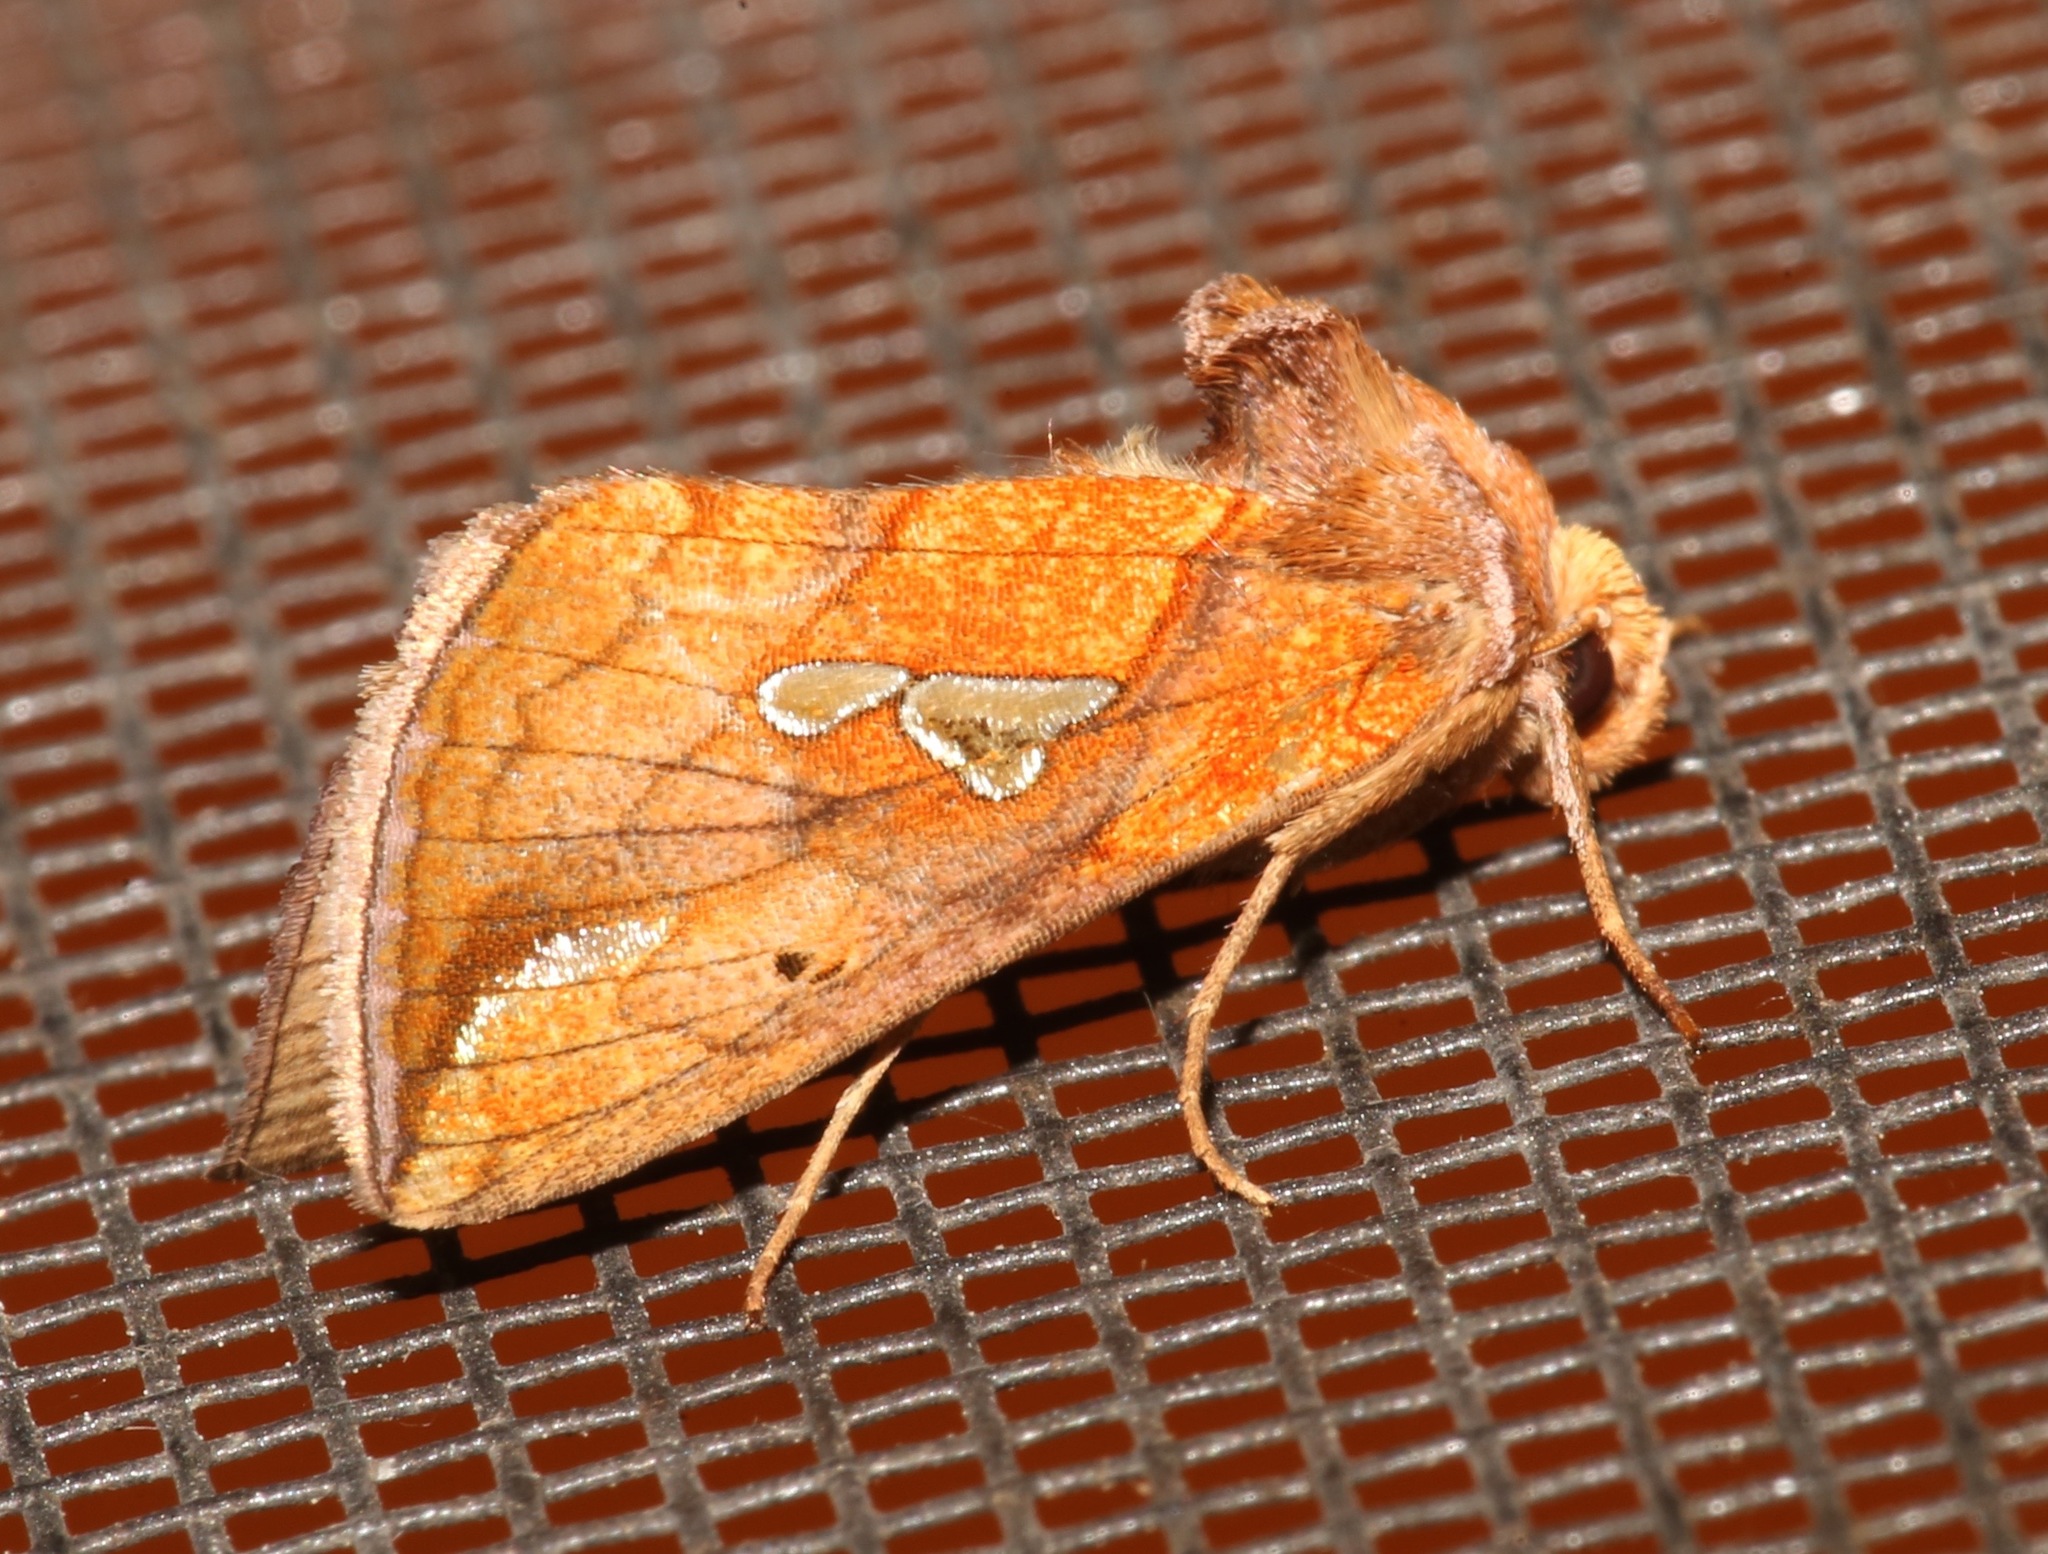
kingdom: Animalia
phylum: Arthropoda
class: Insecta
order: Lepidoptera
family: Noctuidae
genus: Plusia
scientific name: Plusia putnami
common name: Lempke's gold spot
